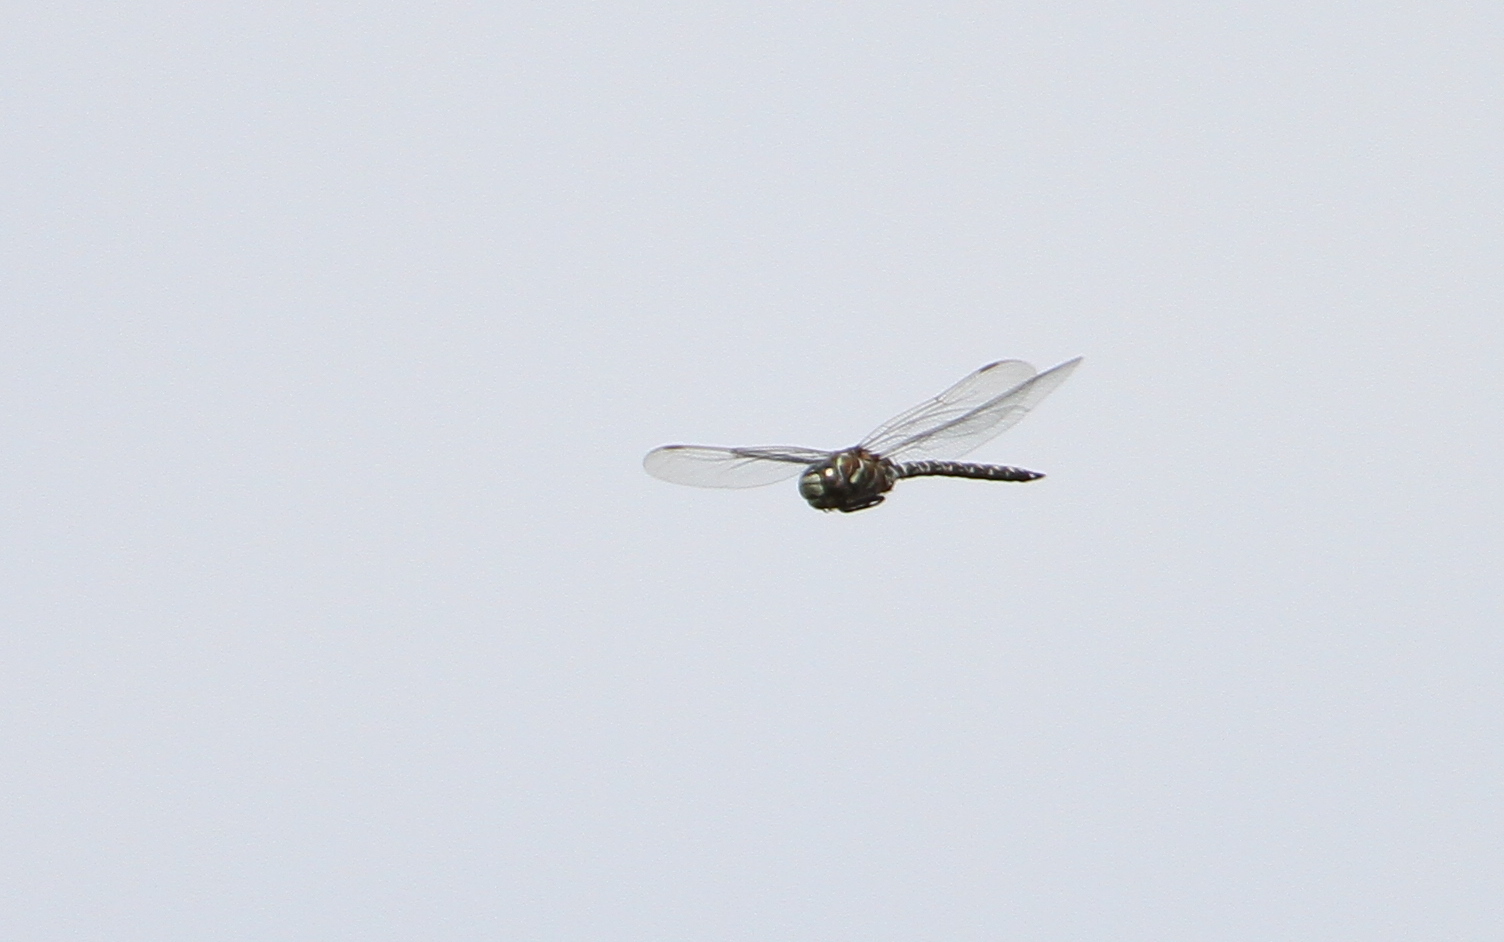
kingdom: Animalia
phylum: Arthropoda
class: Insecta
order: Odonata
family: Aeshnidae
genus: Aeshna
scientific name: Aeshna subarctica
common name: Subarctic darner
